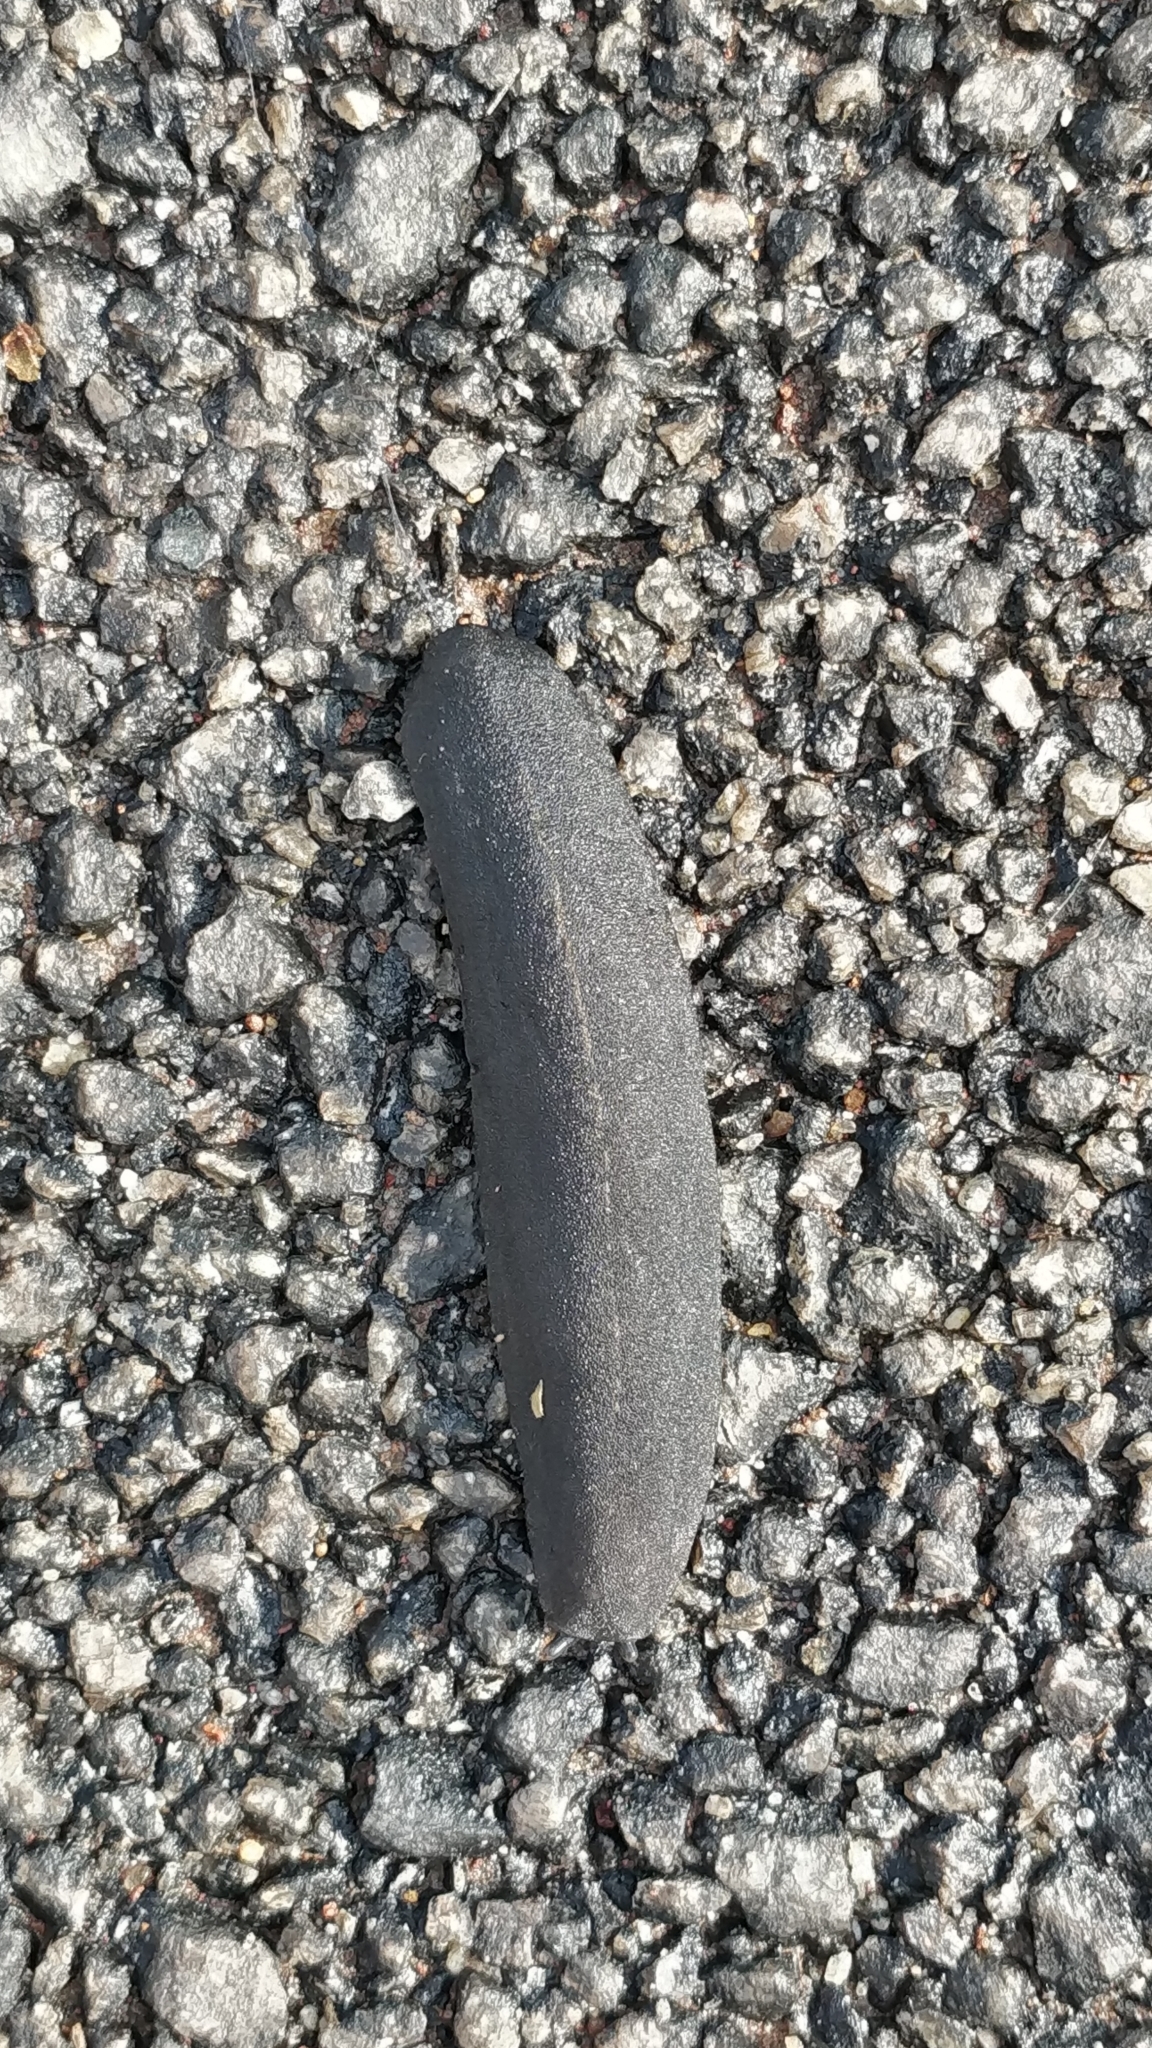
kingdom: Animalia
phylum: Mollusca
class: Gastropoda
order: Systellommatophora
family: Veronicellidae
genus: Laevicaulis
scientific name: Laevicaulis alte
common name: Tropical leatherleaf
